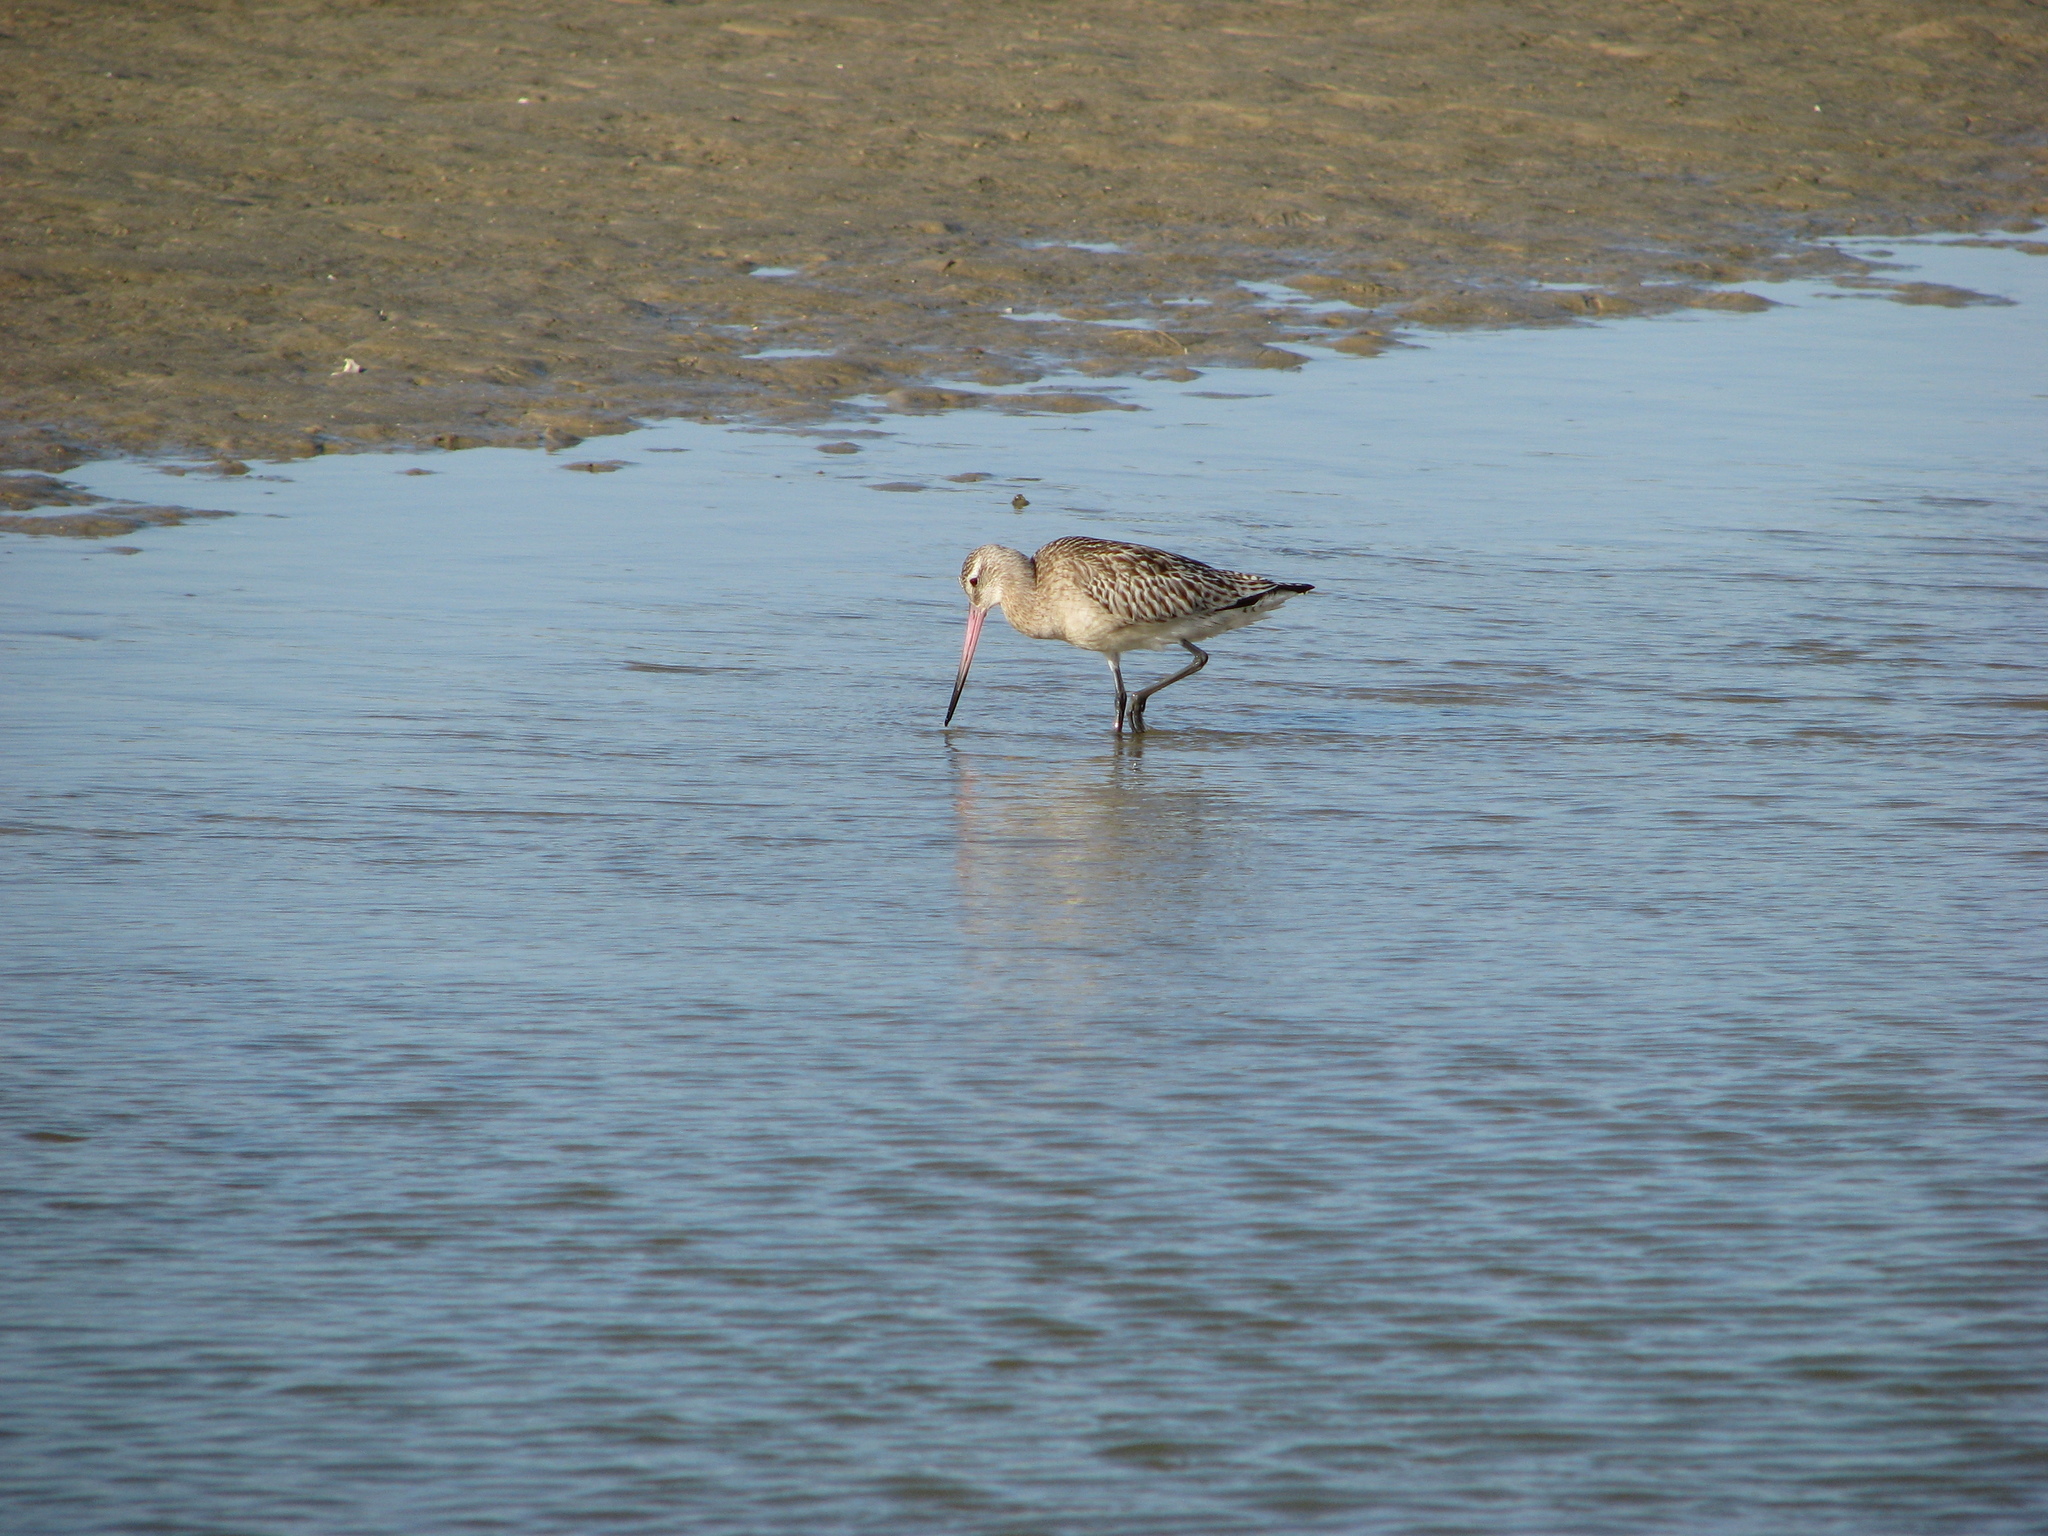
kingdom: Animalia
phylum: Chordata
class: Aves
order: Charadriiformes
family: Scolopacidae
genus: Limosa
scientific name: Limosa lapponica
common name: Bar-tailed godwit
